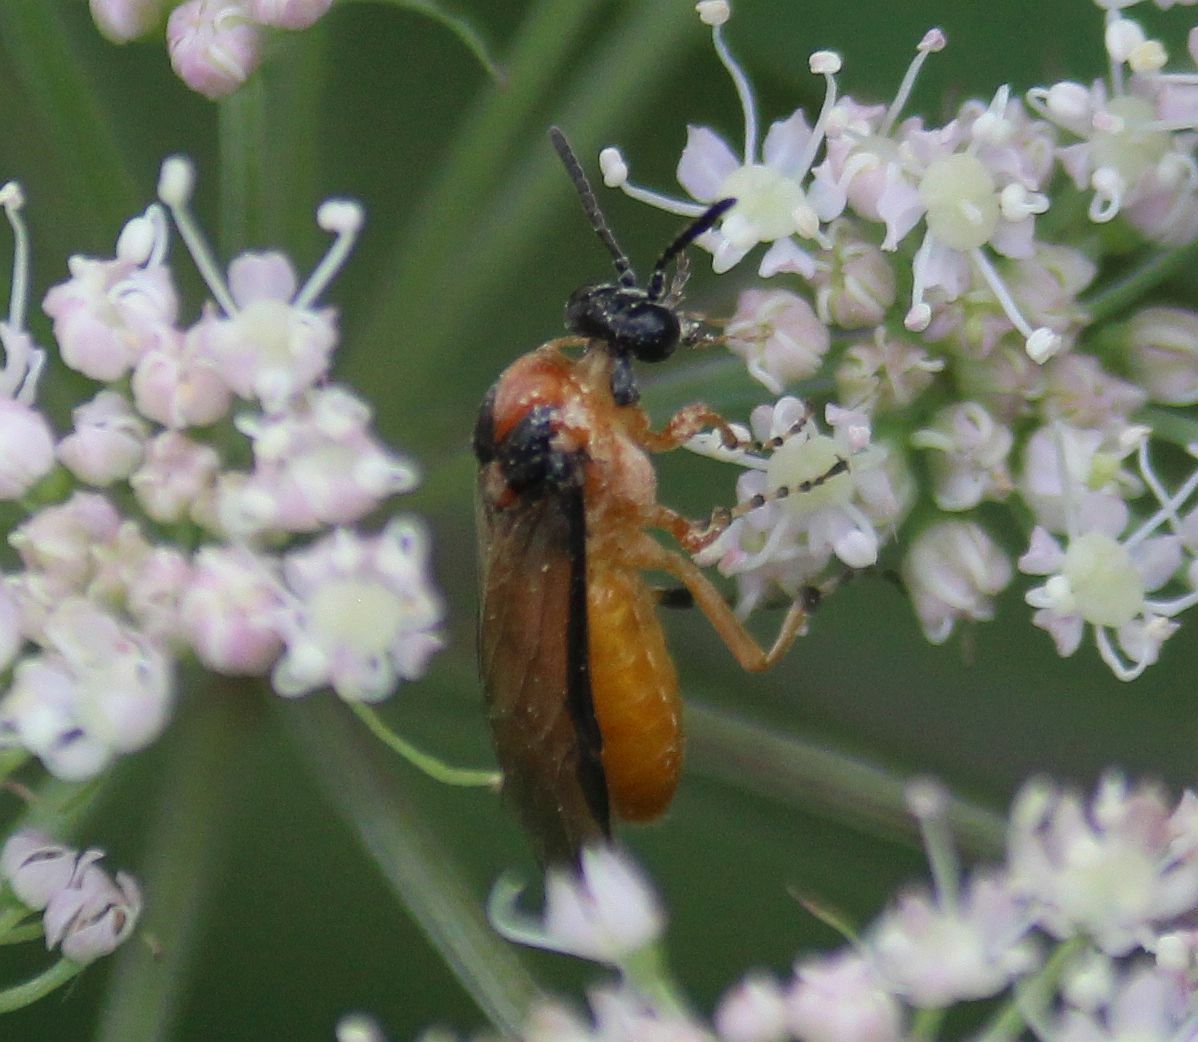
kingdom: Animalia
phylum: Arthropoda
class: Insecta
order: Hymenoptera
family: Tenthredinidae
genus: Athalia
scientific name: Athalia rosae
